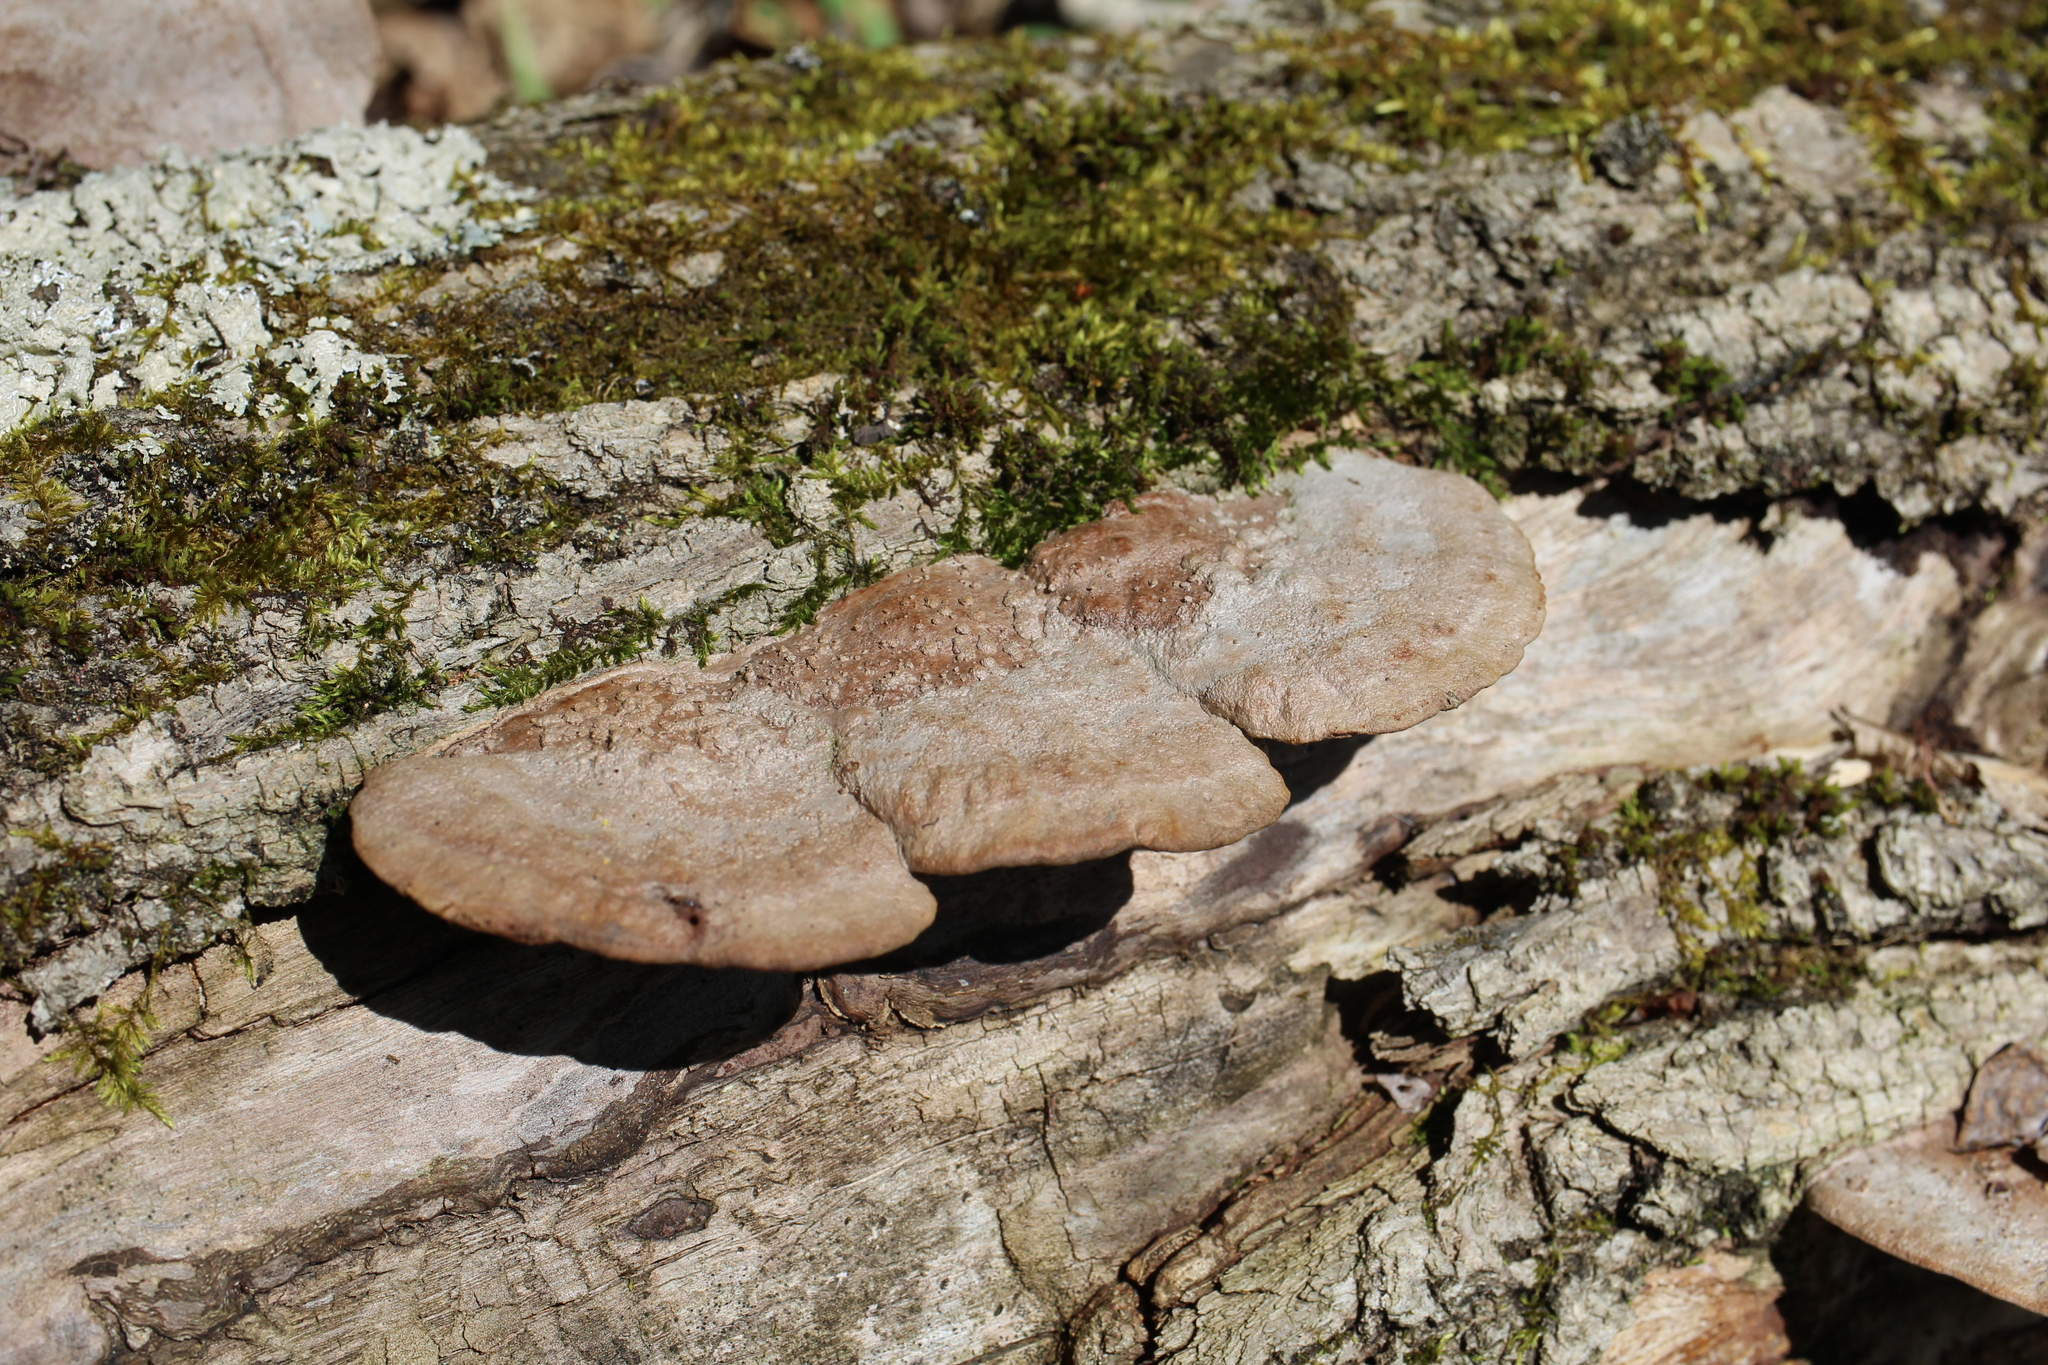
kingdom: Fungi
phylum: Basidiomycota
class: Agaricomycetes
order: Hymenochaetales
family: Hymenochaetaceae
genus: Phellinus
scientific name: Phellinus gilvus
